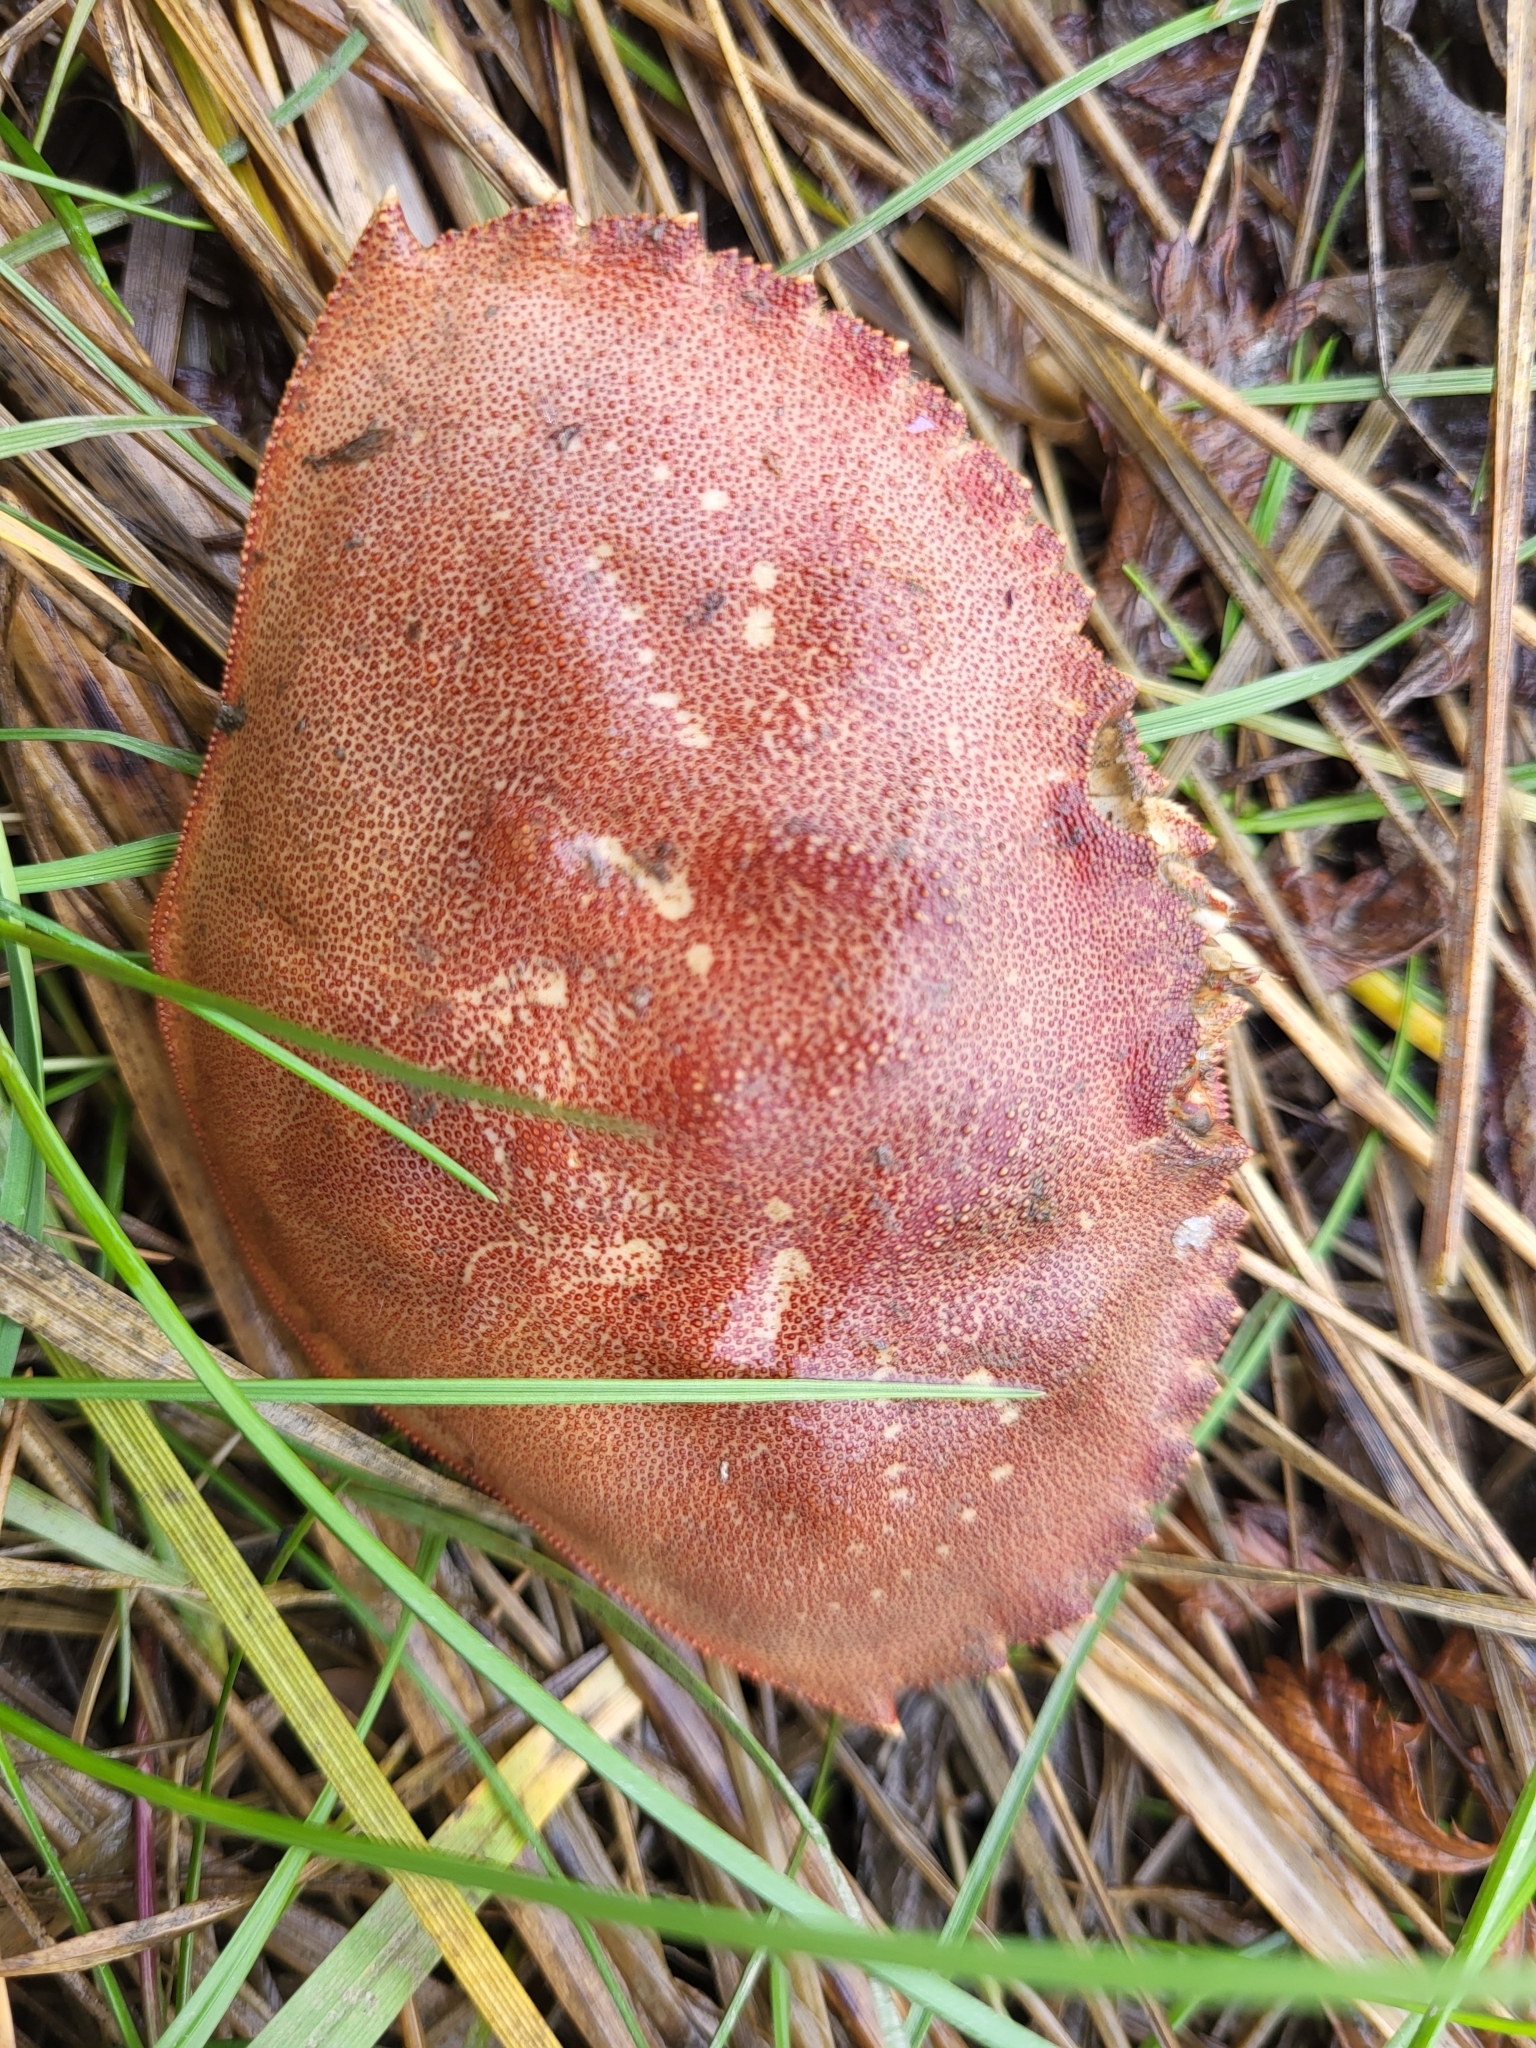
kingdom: Animalia
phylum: Arthropoda
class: Malacostraca
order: Decapoda
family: Cancridae
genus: Metacarcinus
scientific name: Metacarcinus magister
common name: Californian crab
